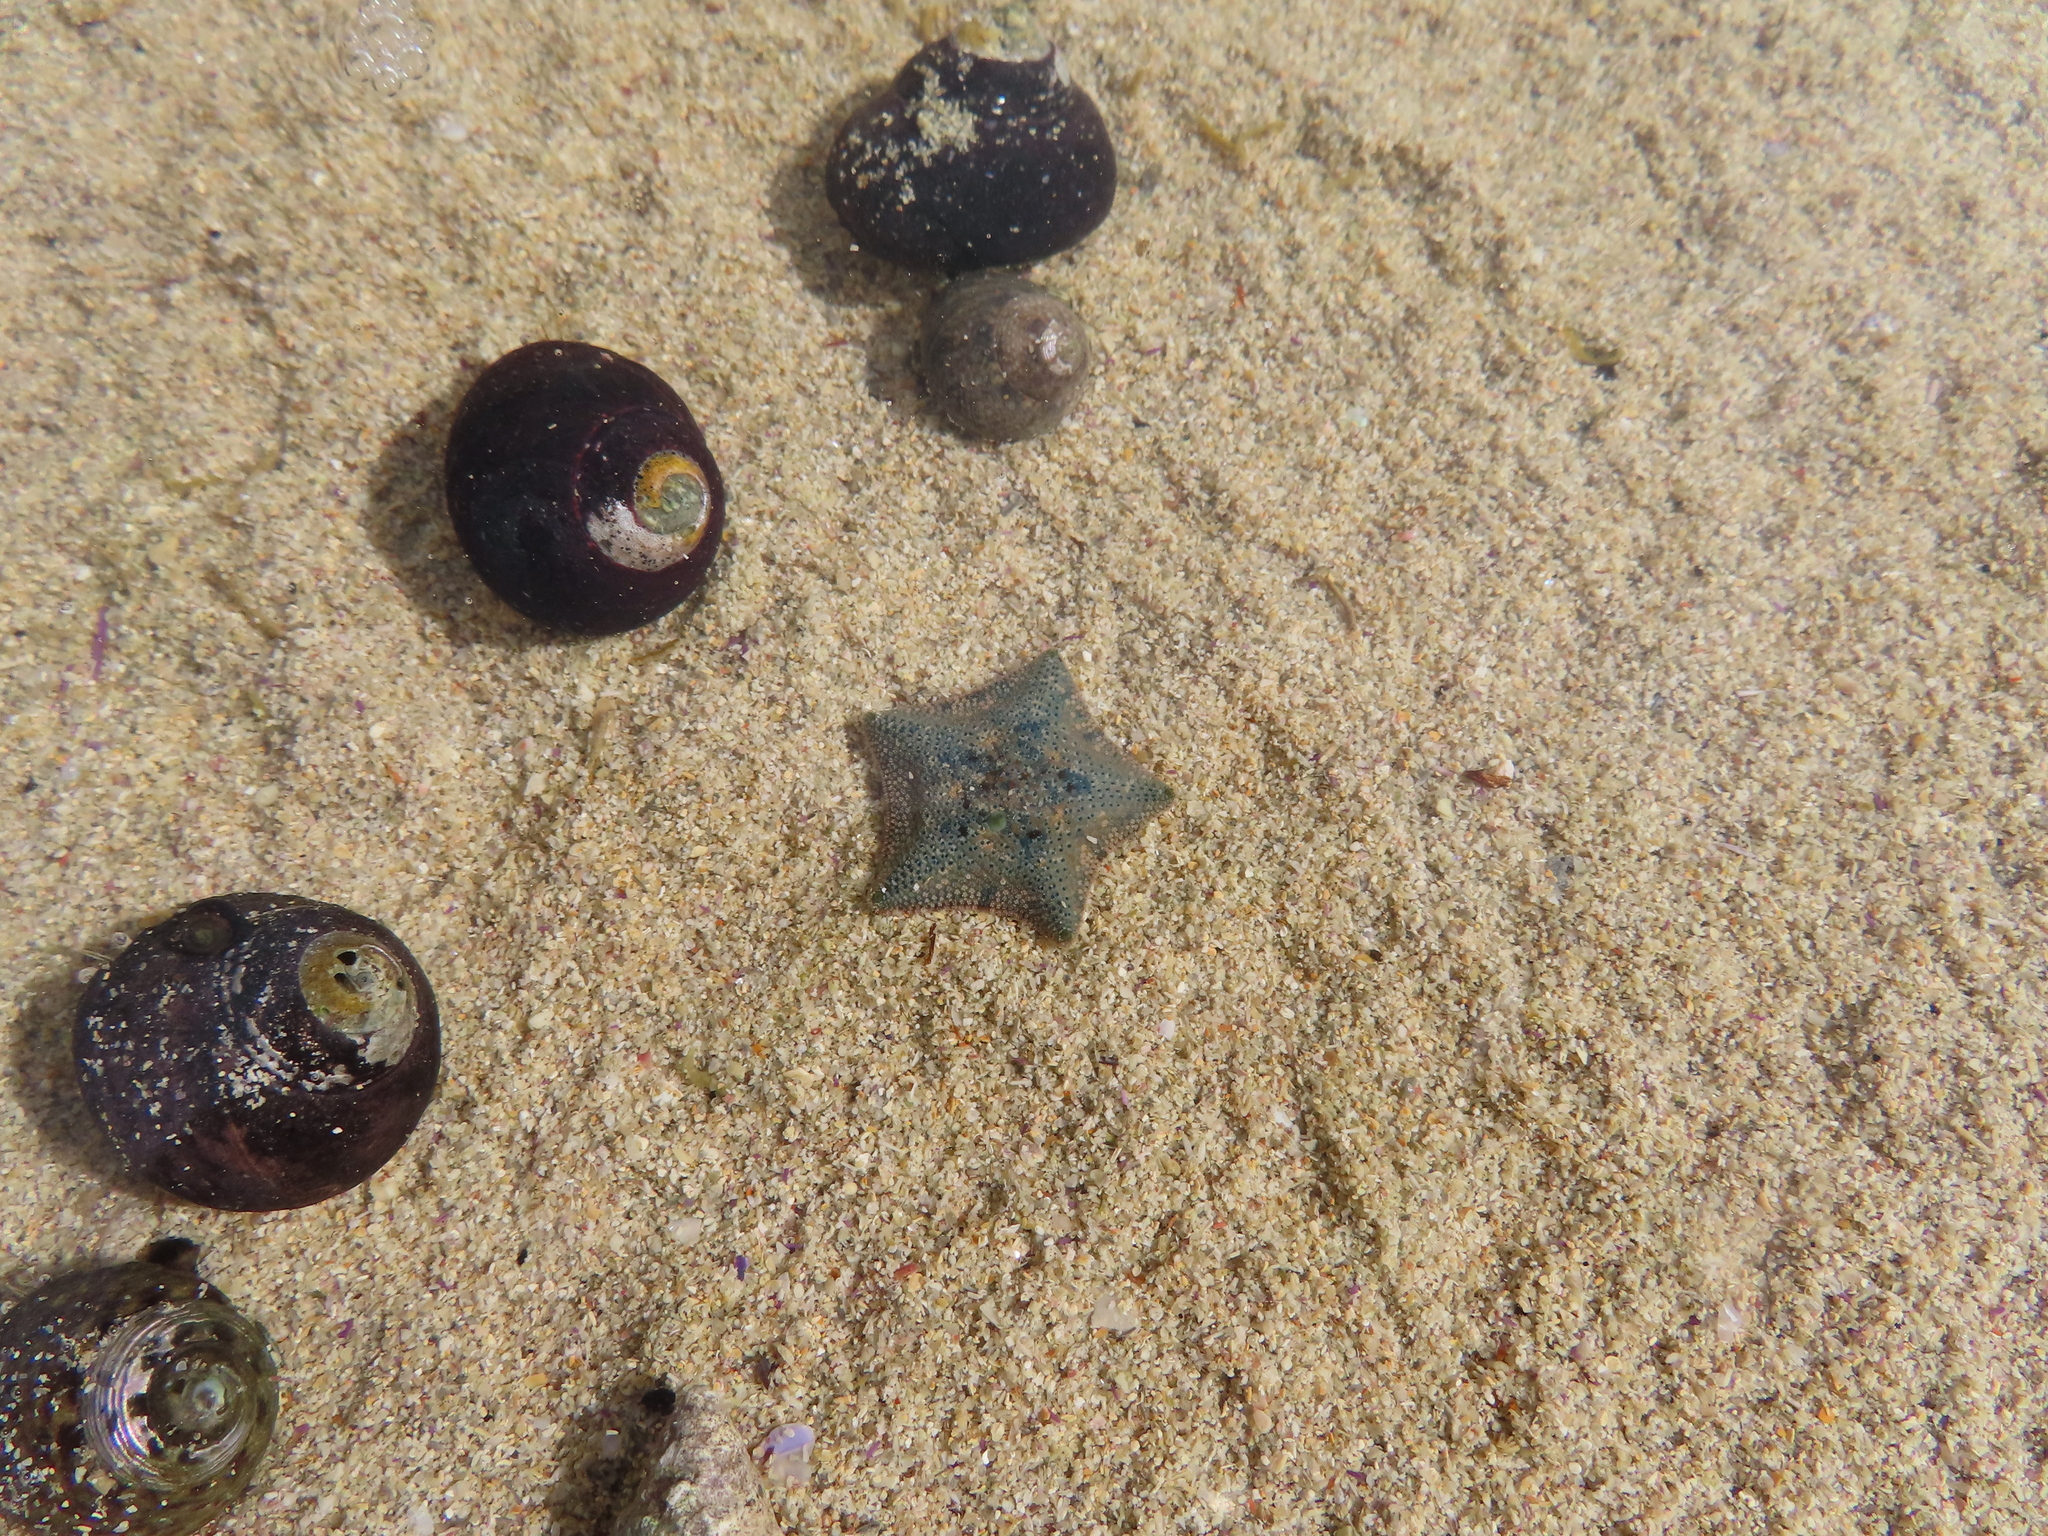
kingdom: Animalia
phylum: Echinodermata
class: Asteroidea
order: Valvatida
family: Asterinidae
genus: Parvulastra
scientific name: Parvulastra dyscrita
